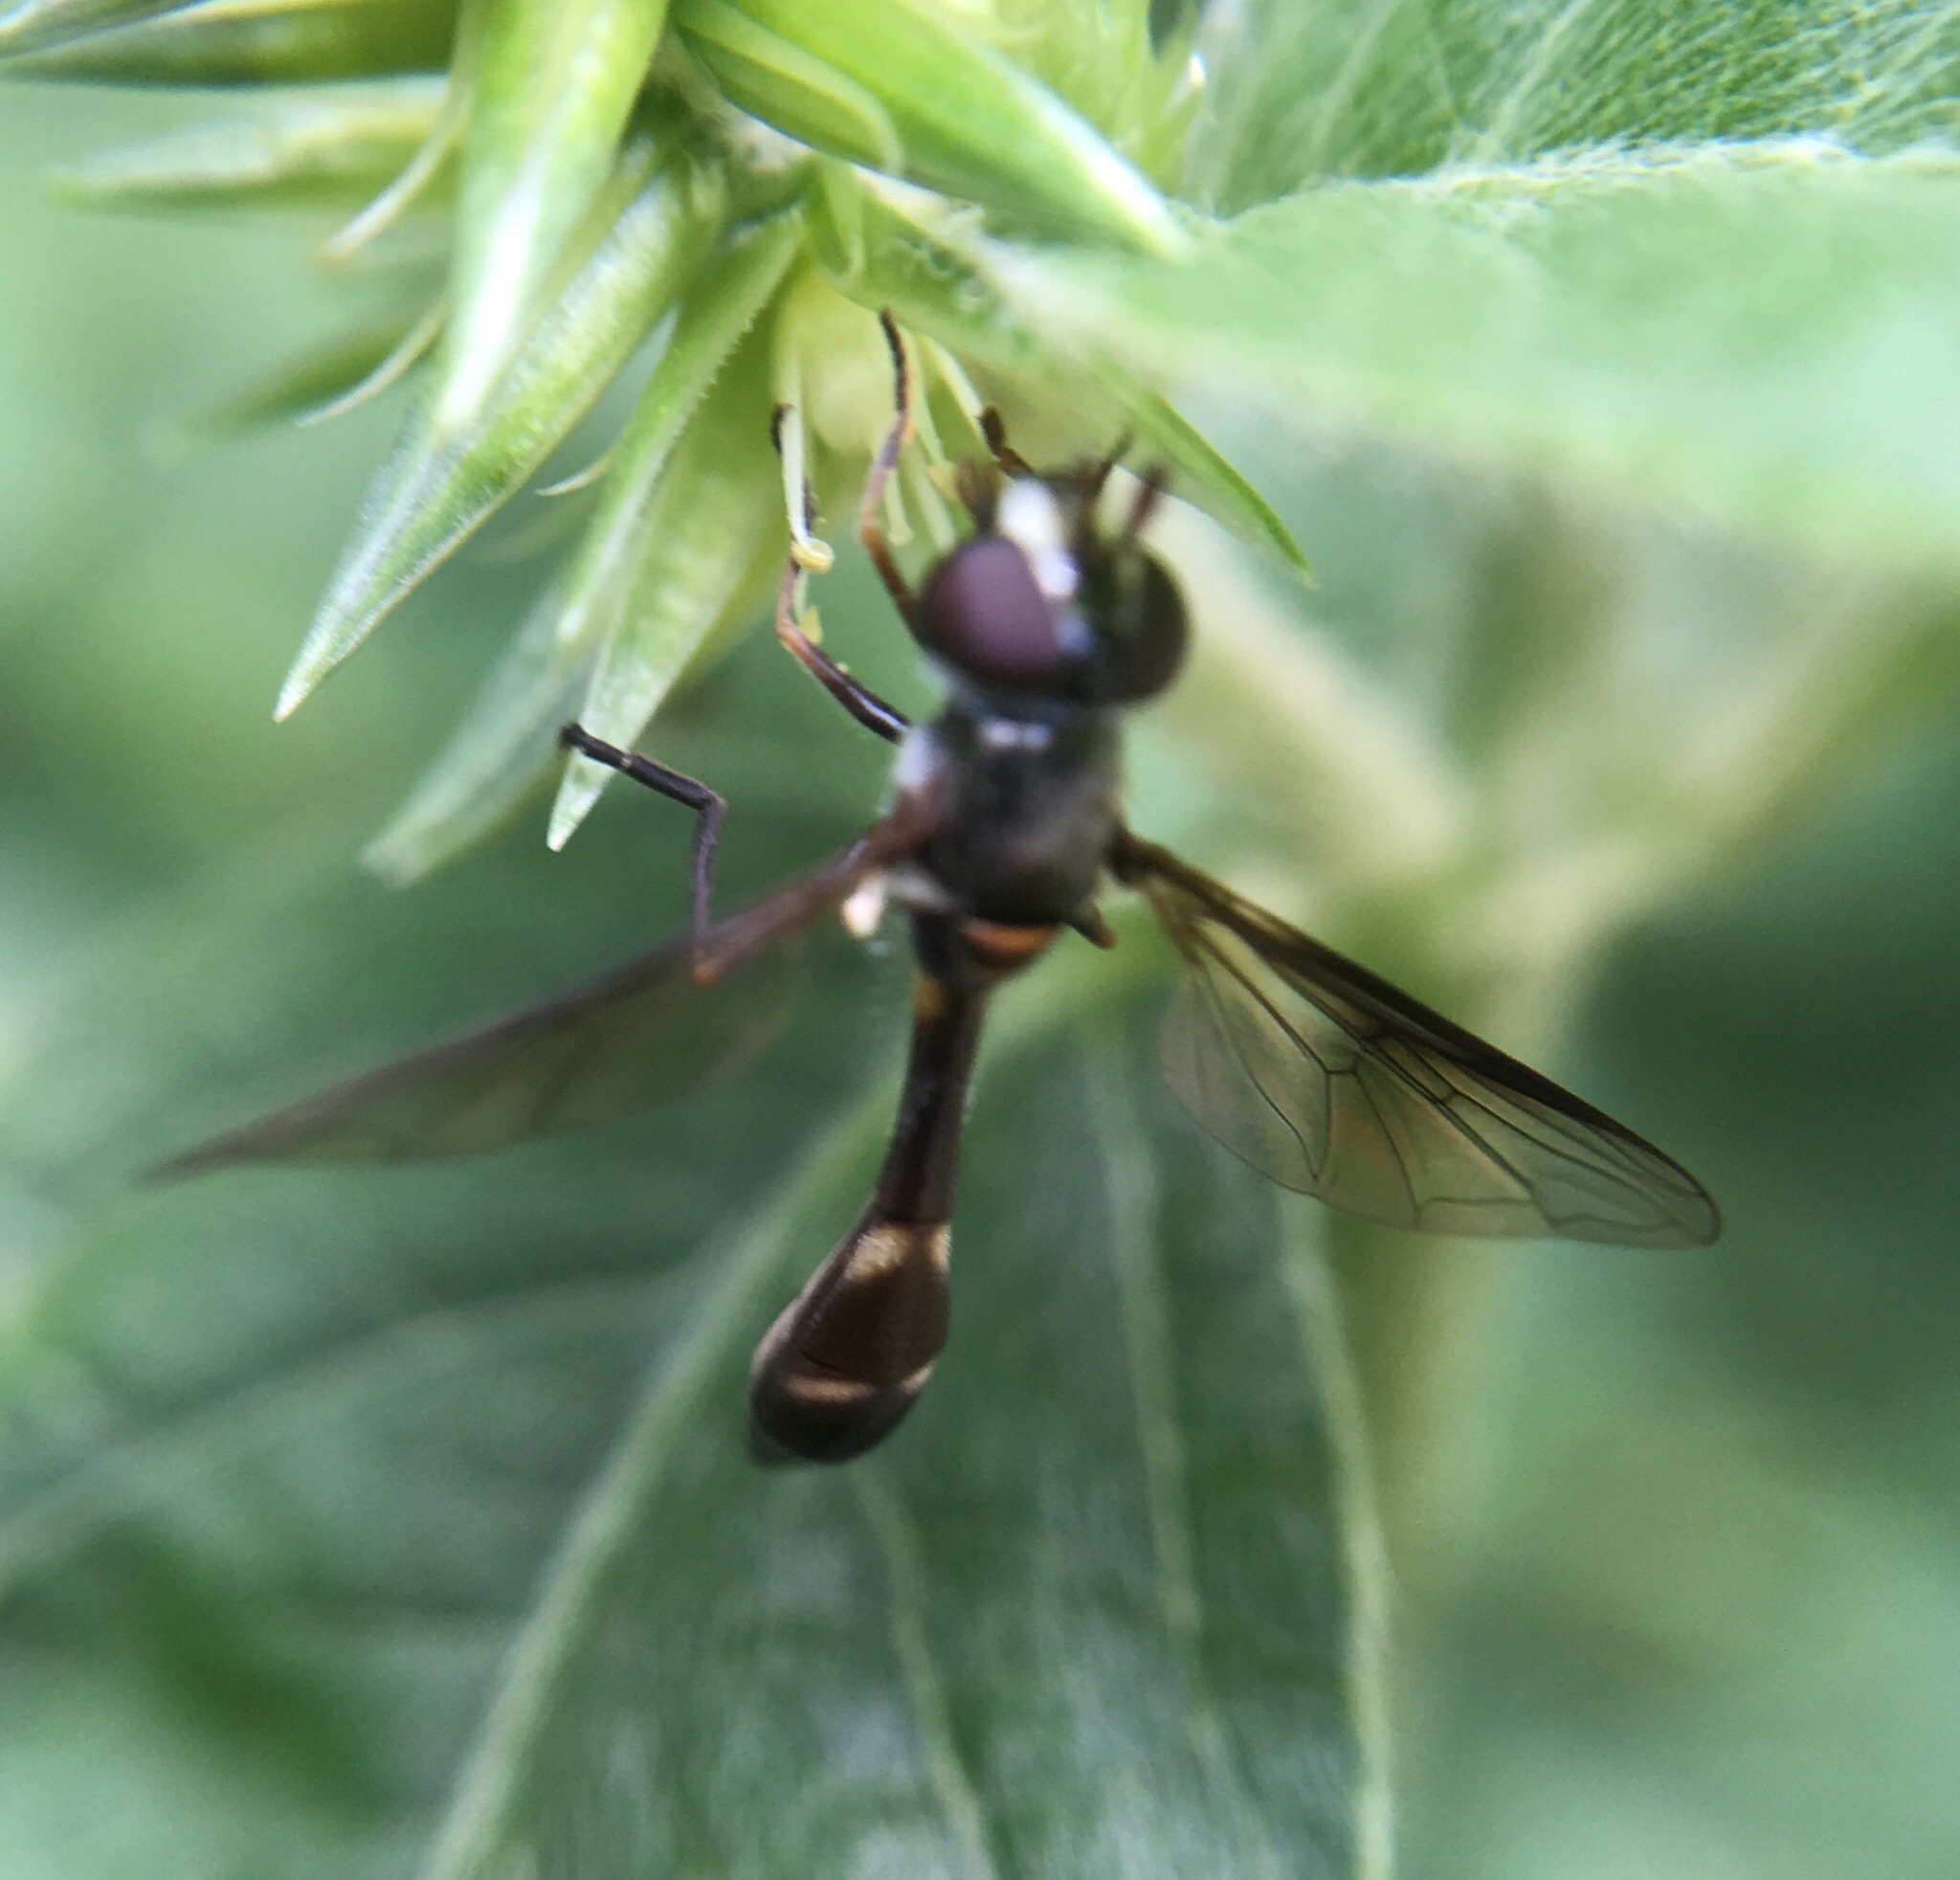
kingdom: Animalia
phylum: Arthropoda
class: Insecta
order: Diptera
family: Syrphidae
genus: Dioprosopa
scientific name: Dioprosopa clavatus
